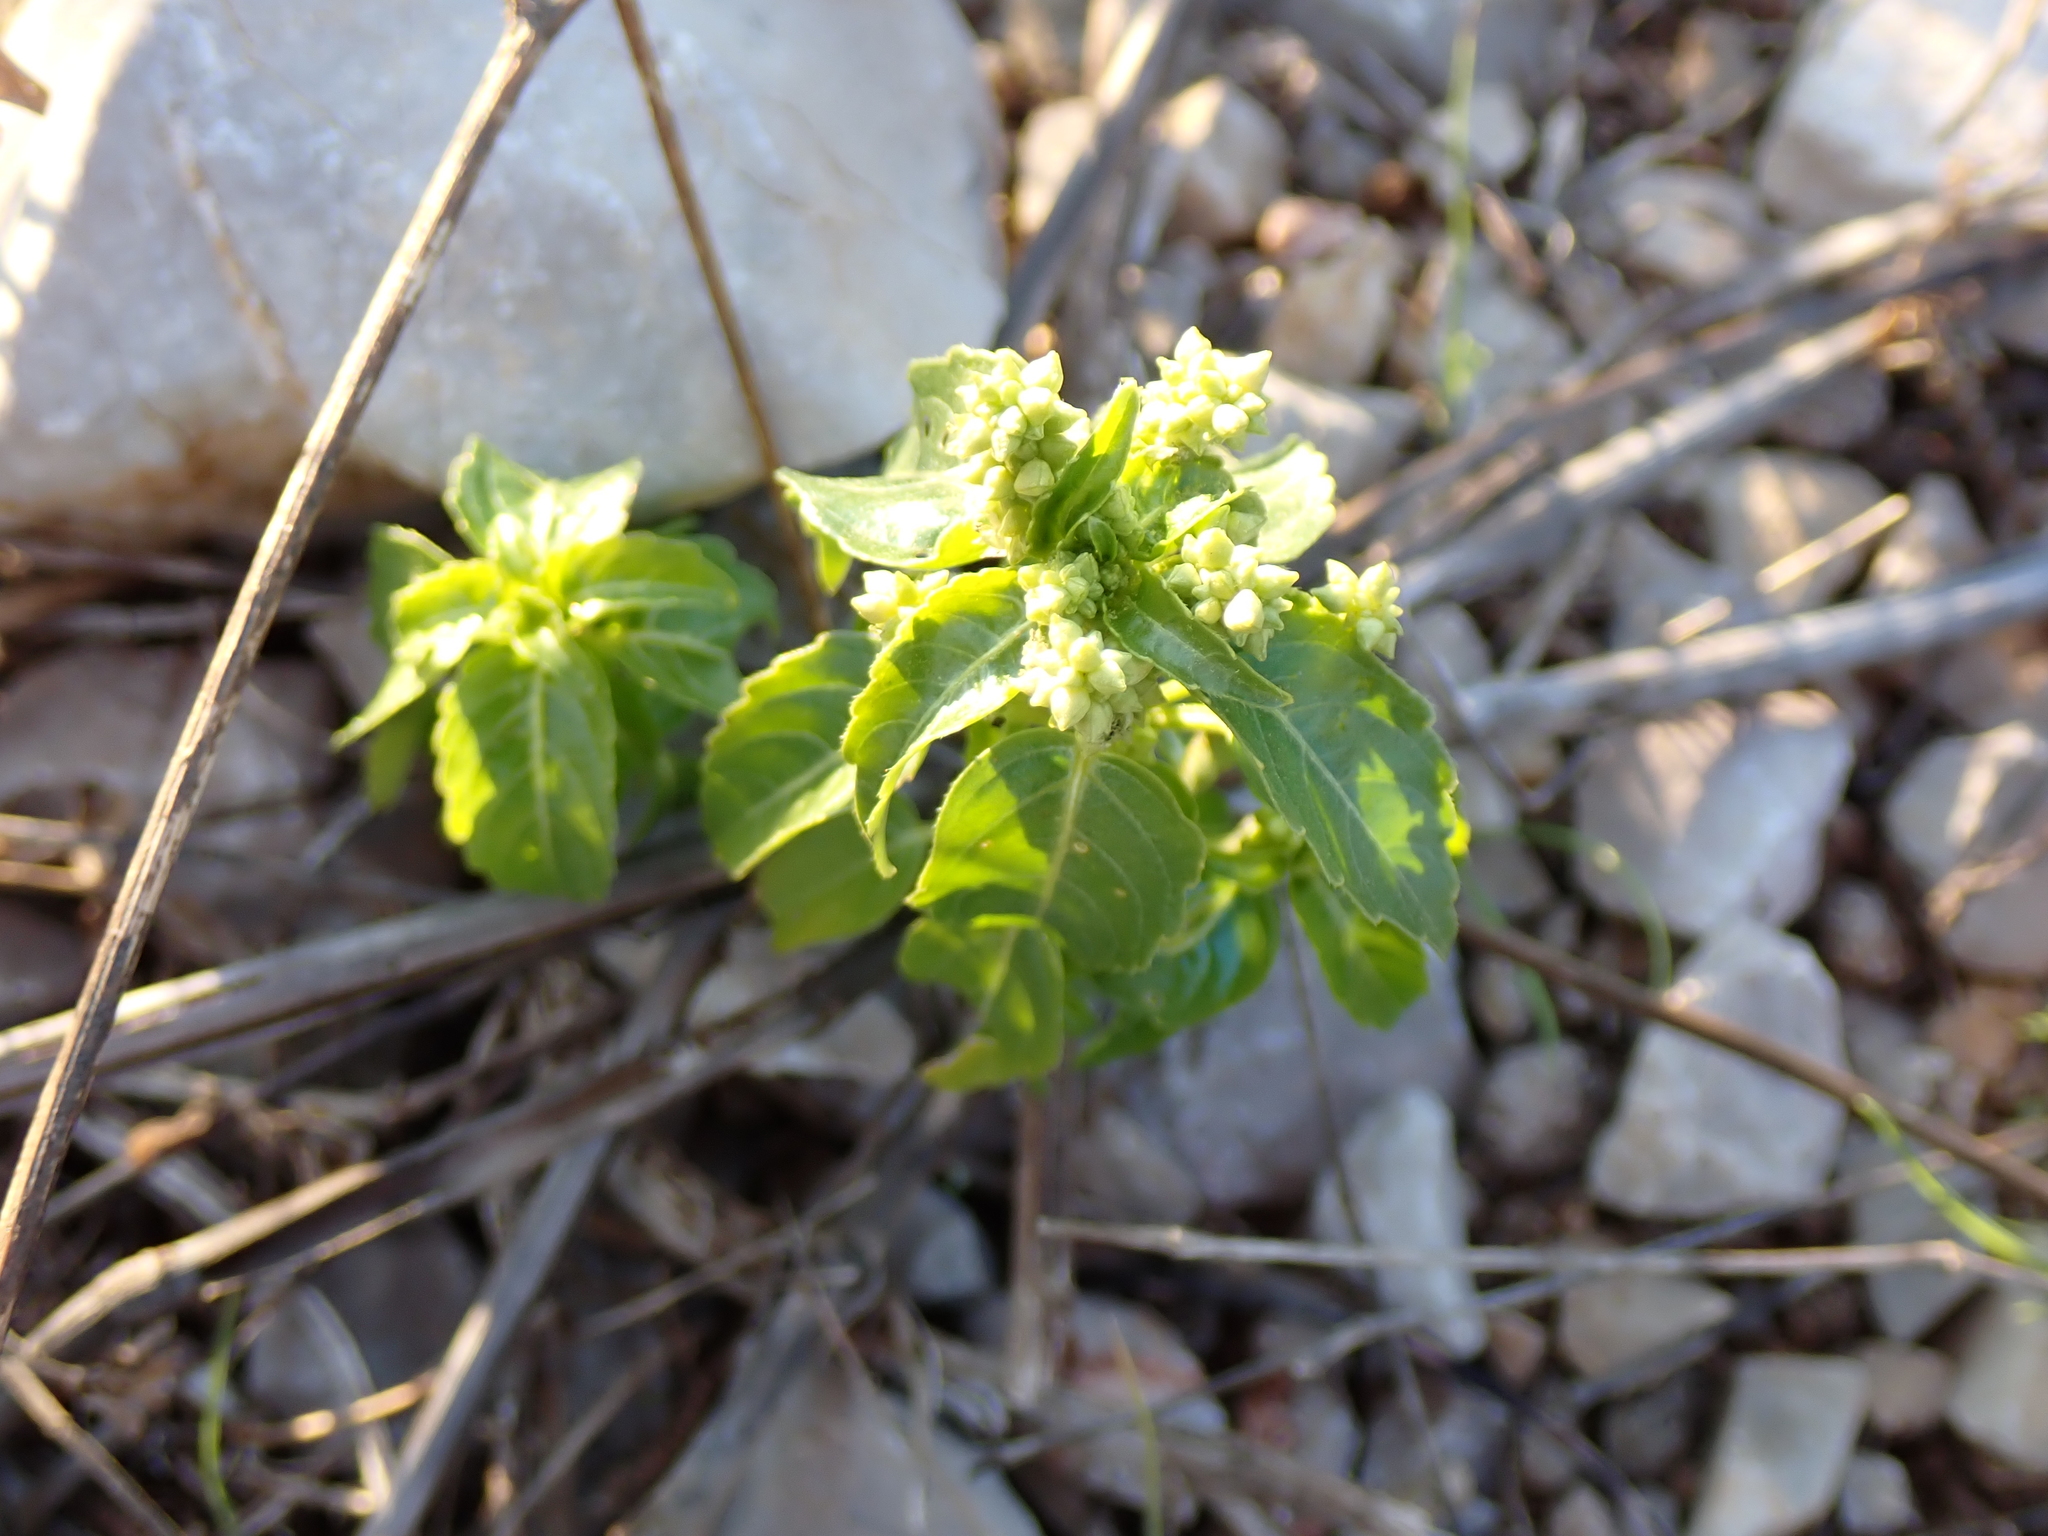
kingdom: Plantae
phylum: Tracheophyta
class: Magnoliopsida
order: Malpighiales
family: Euphorbiaceae
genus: Mercurialis
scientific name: Mercurialis annua
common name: Annual mercury
